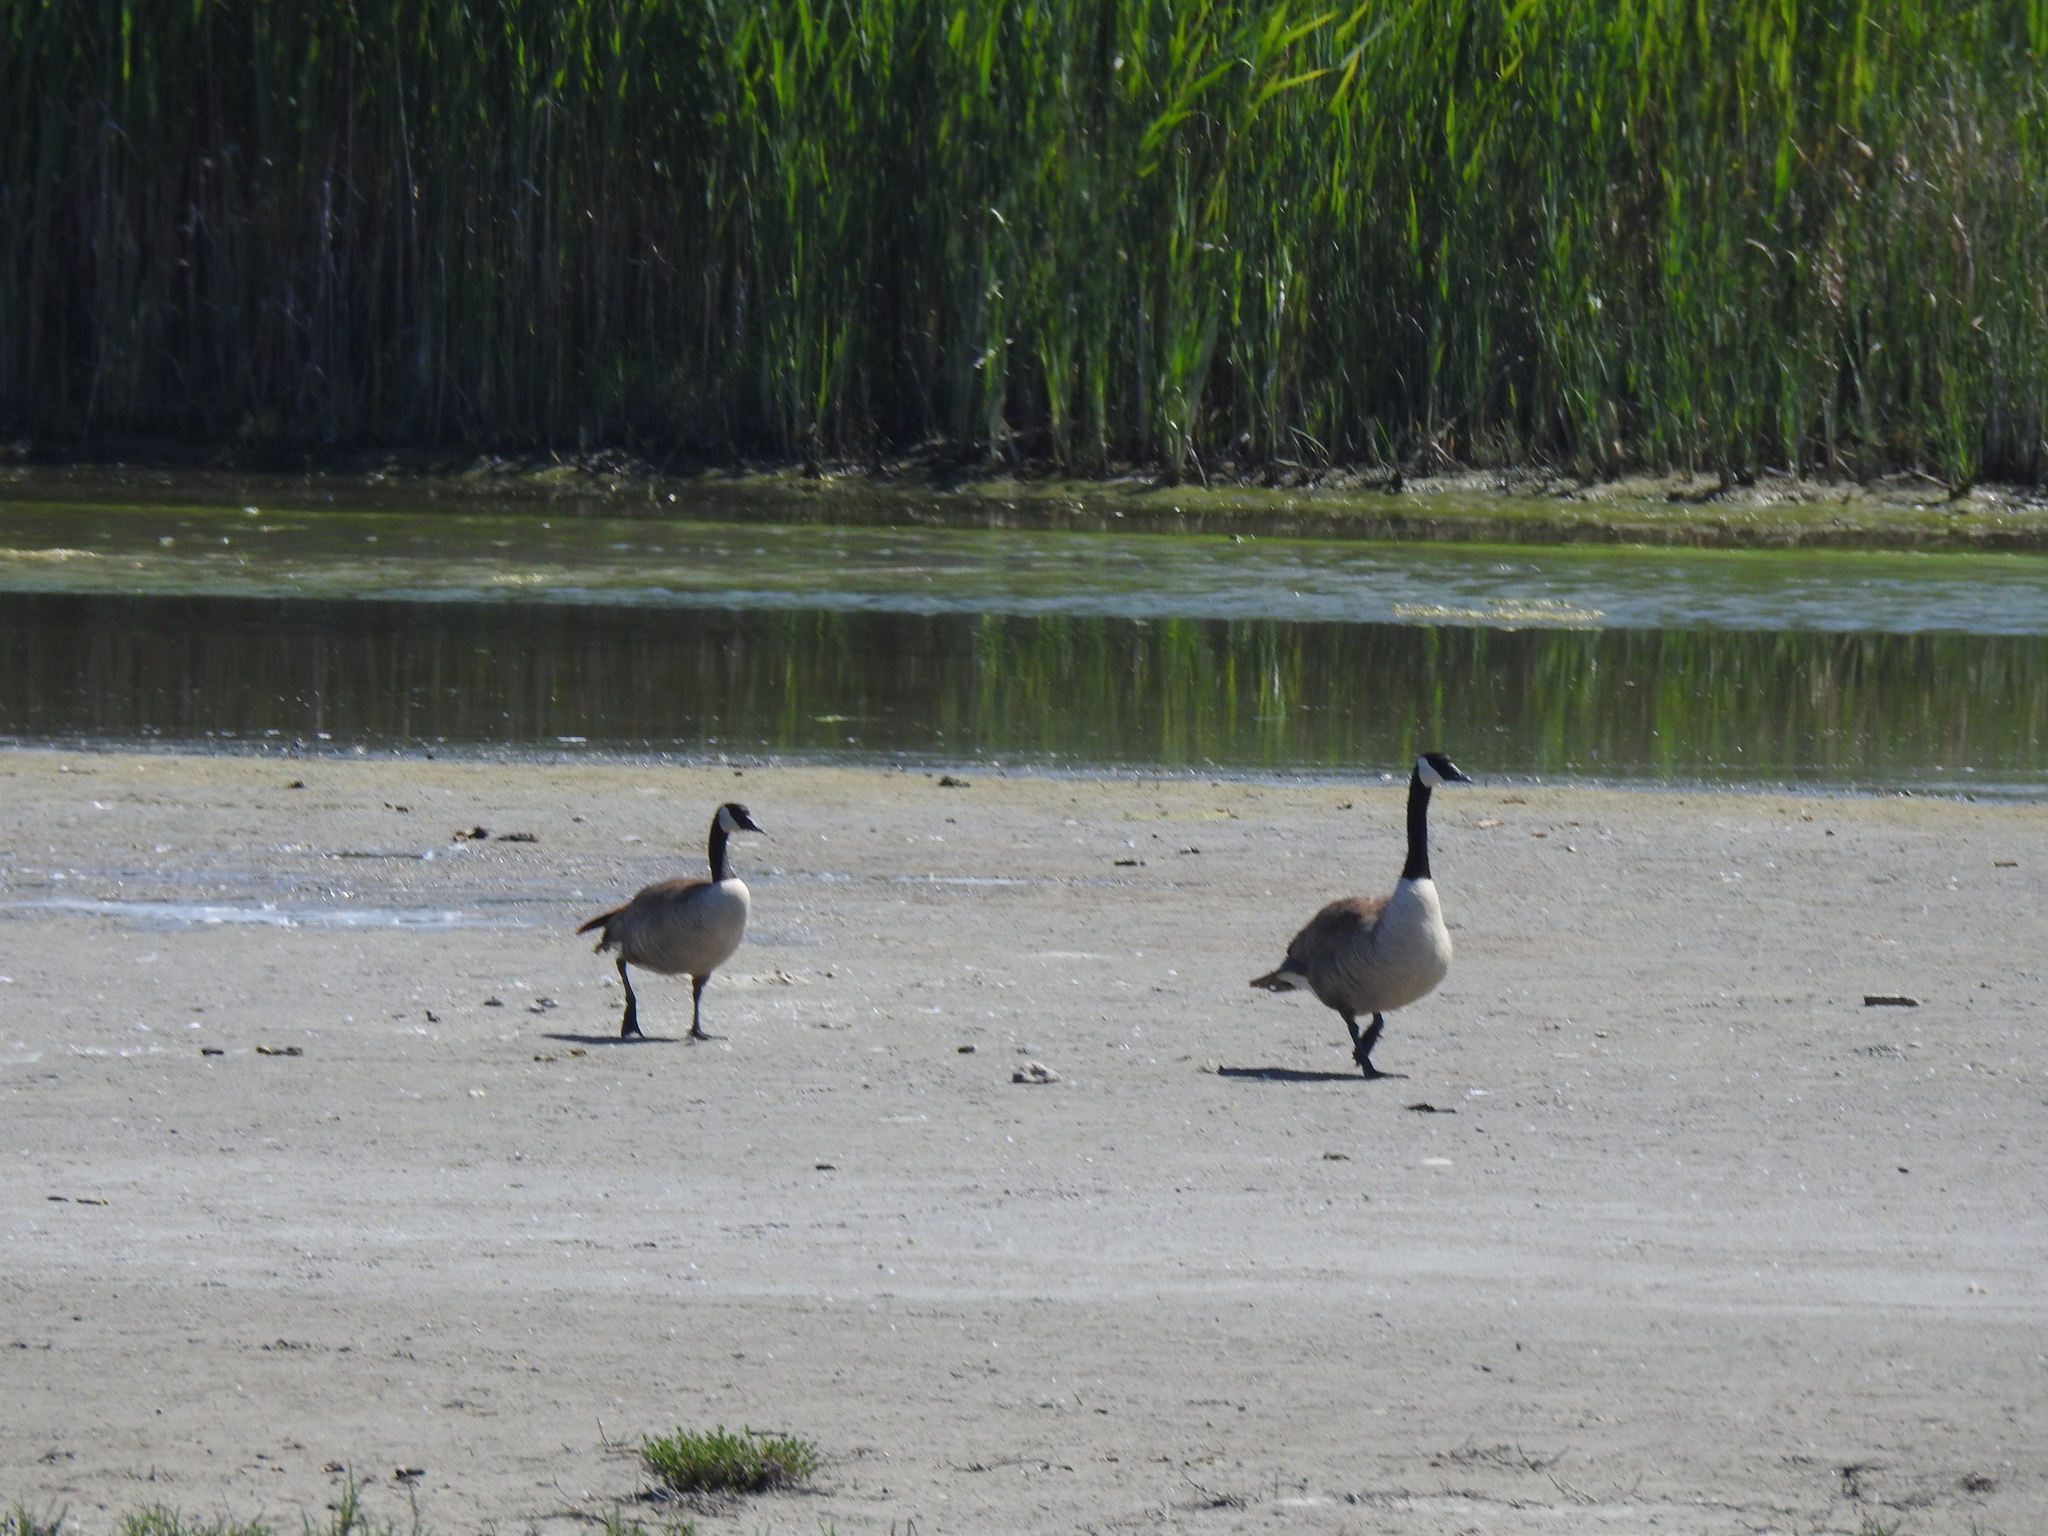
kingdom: Animalia
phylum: Chordata
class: Aves
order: Anseriformes
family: Anatidae
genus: Branta
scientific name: Branta canadensis
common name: Canada goose
